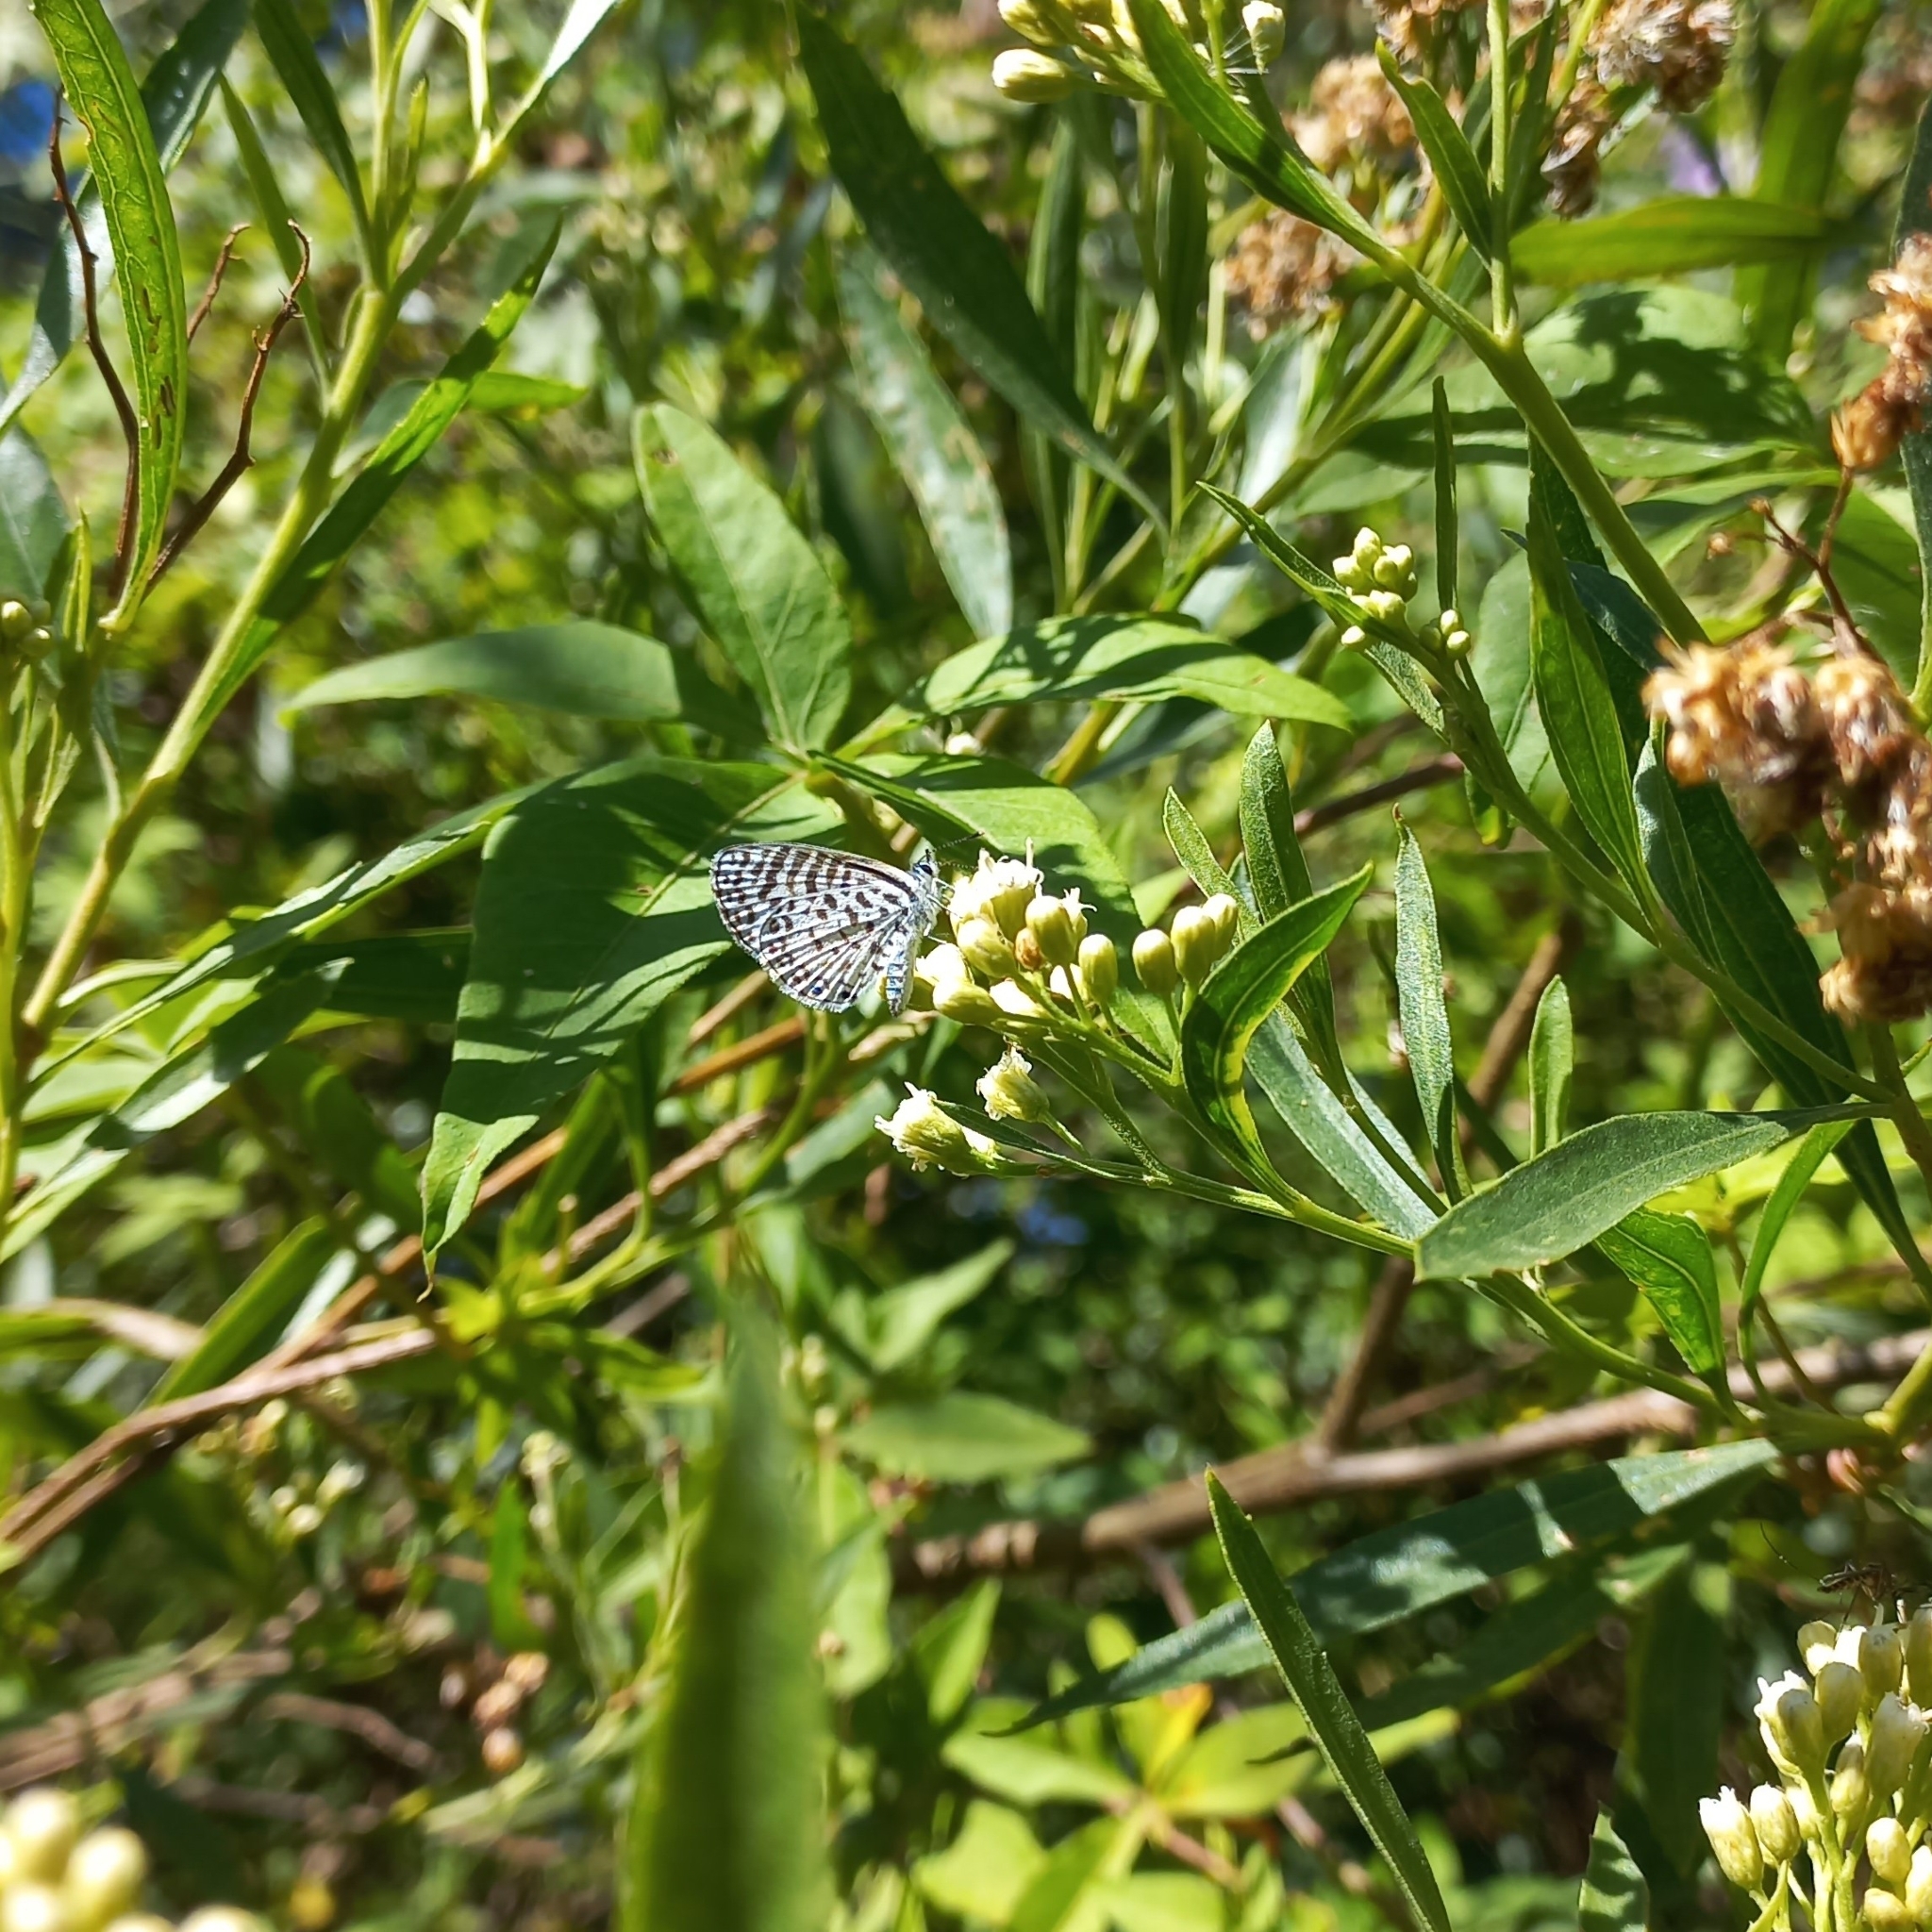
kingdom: Animalia
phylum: Arthropoda
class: Insecta
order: Lepidoptera
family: Lycaenidae
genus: Leptotes
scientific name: Leptotes cassius
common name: Cassius blue
